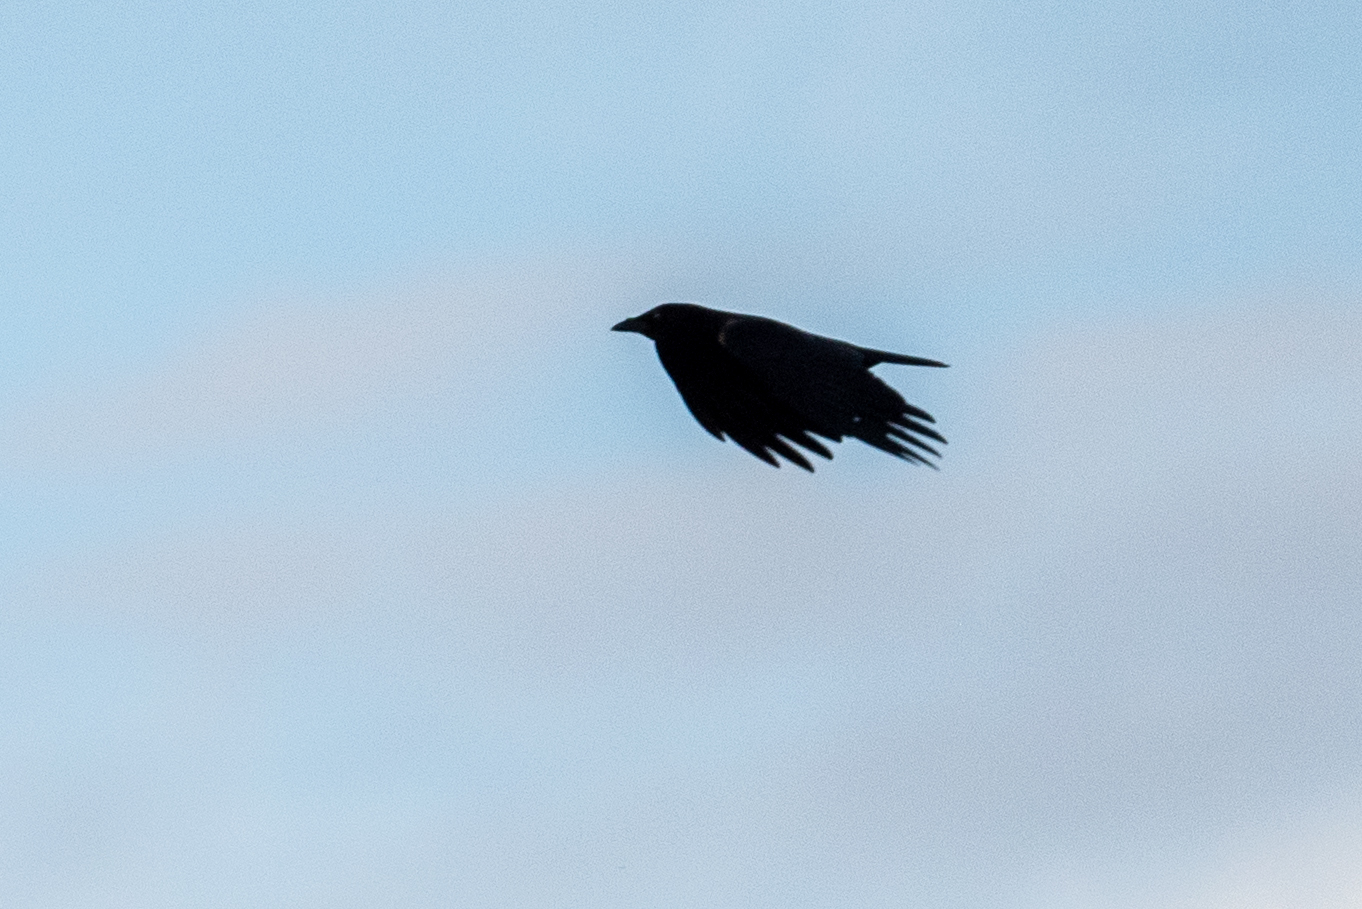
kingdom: Animalia
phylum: Chordata
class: Aves
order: Passeriformes
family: Corvidae
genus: Corvus
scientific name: Corvus brachyrhynchos
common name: American crow
